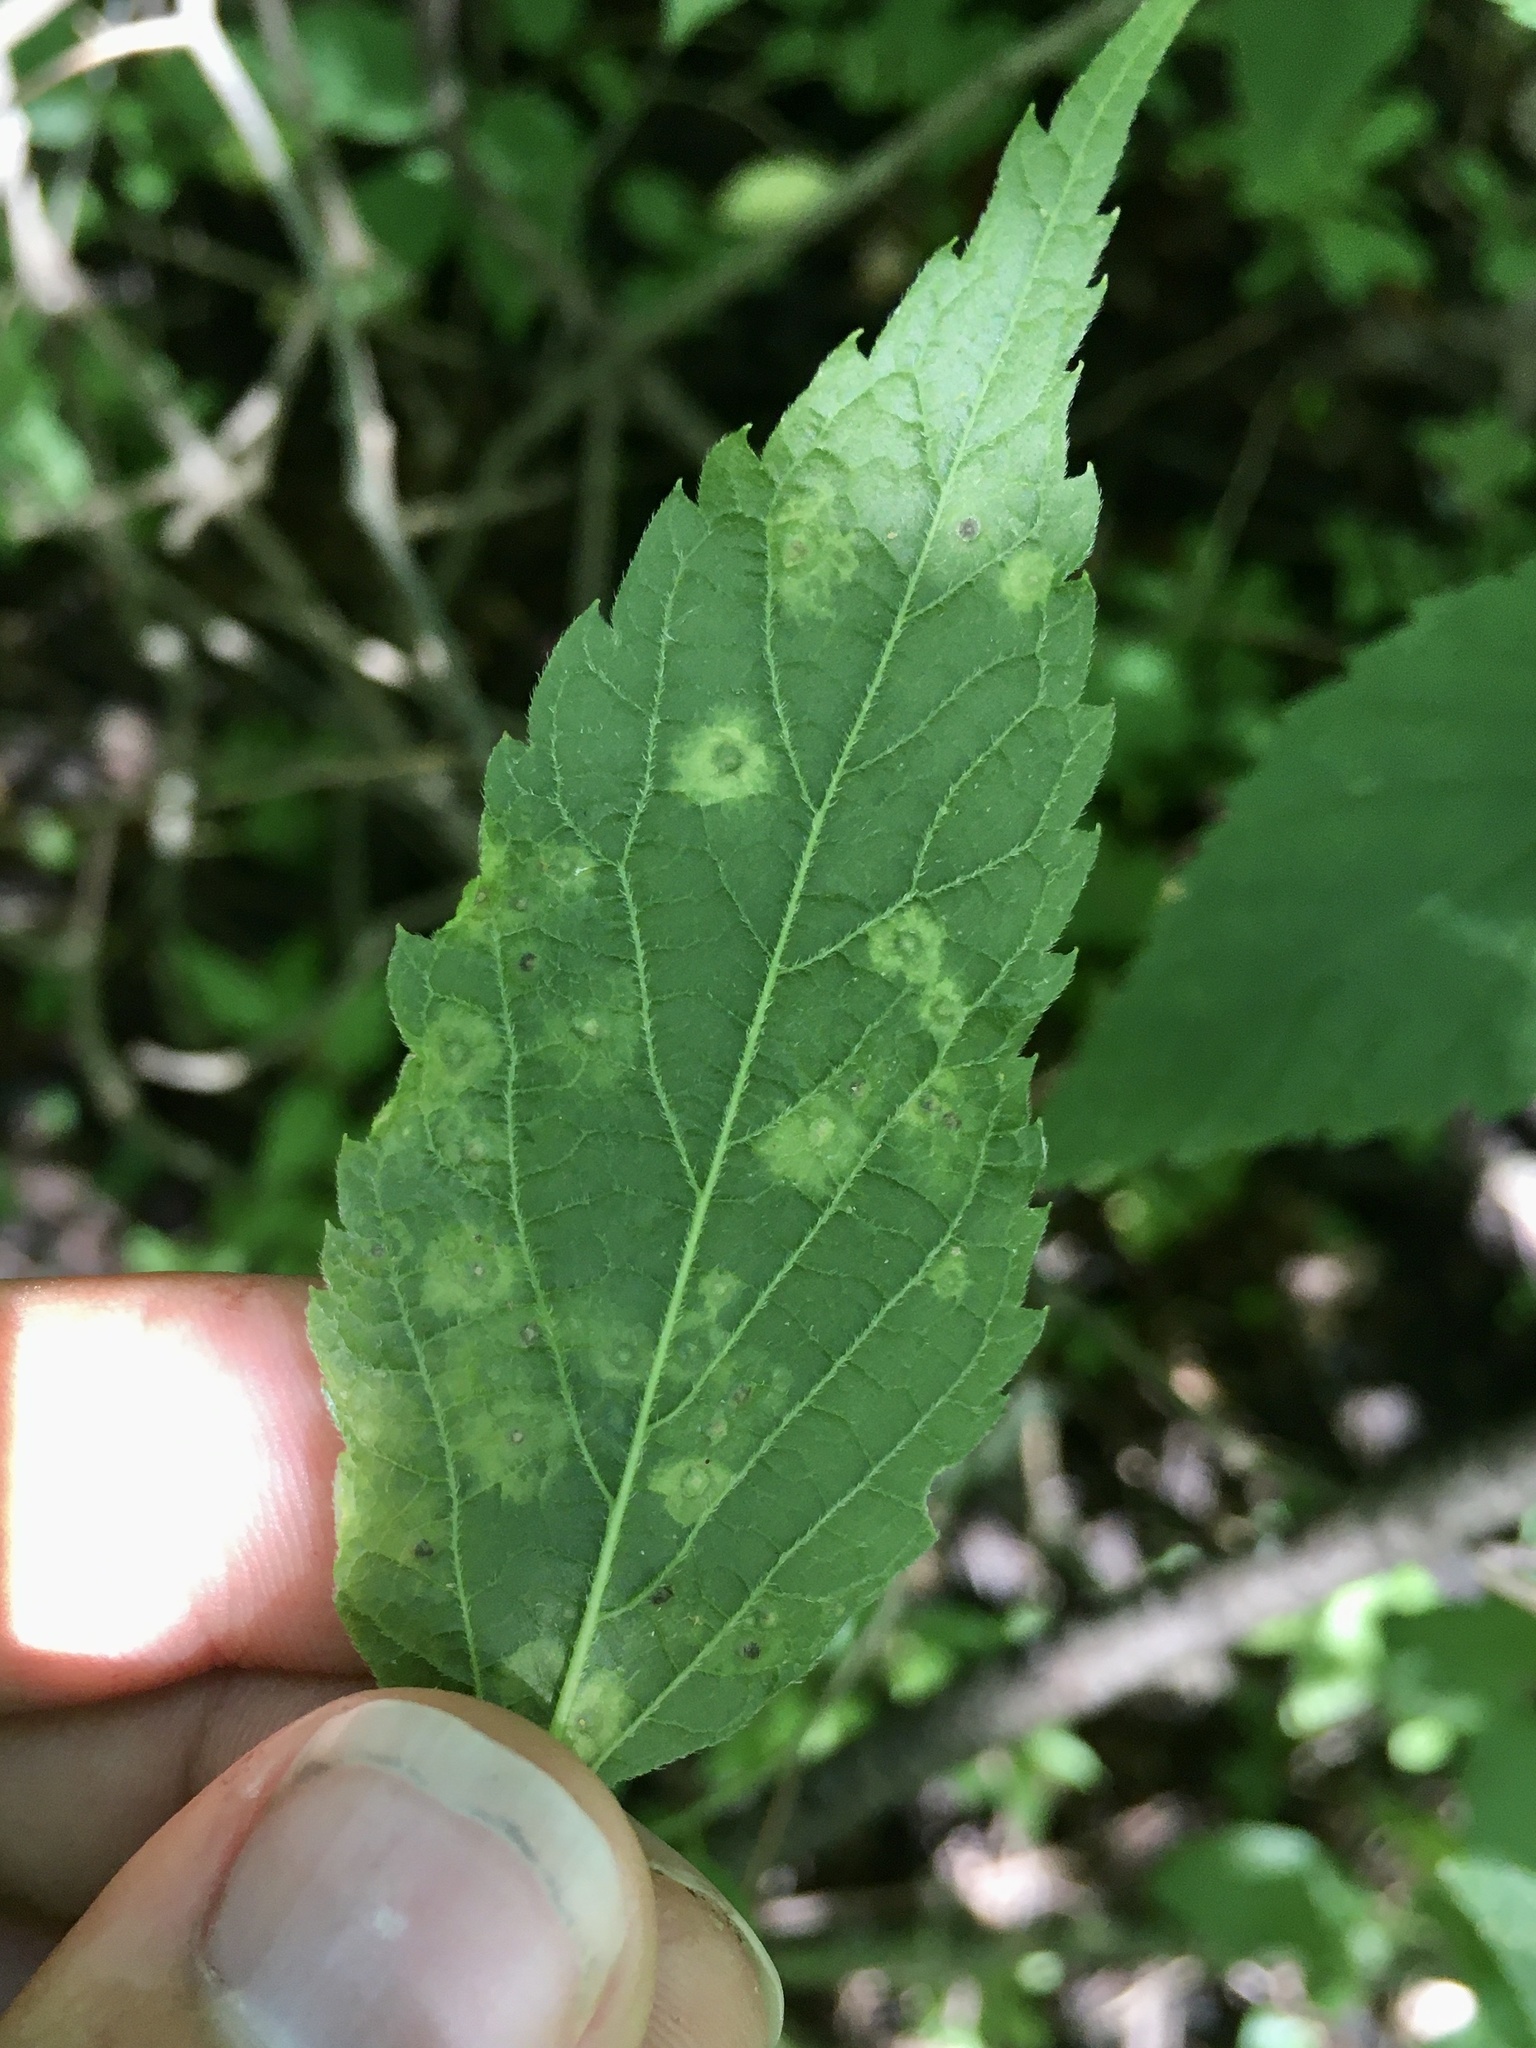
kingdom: Animalia
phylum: Arthropoda
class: Insecta
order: Hemiptera
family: Aphalaridae
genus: Pachypsylla
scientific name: Pachypsylla celtidisvesicula
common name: Hackberry blister gall psyllid
